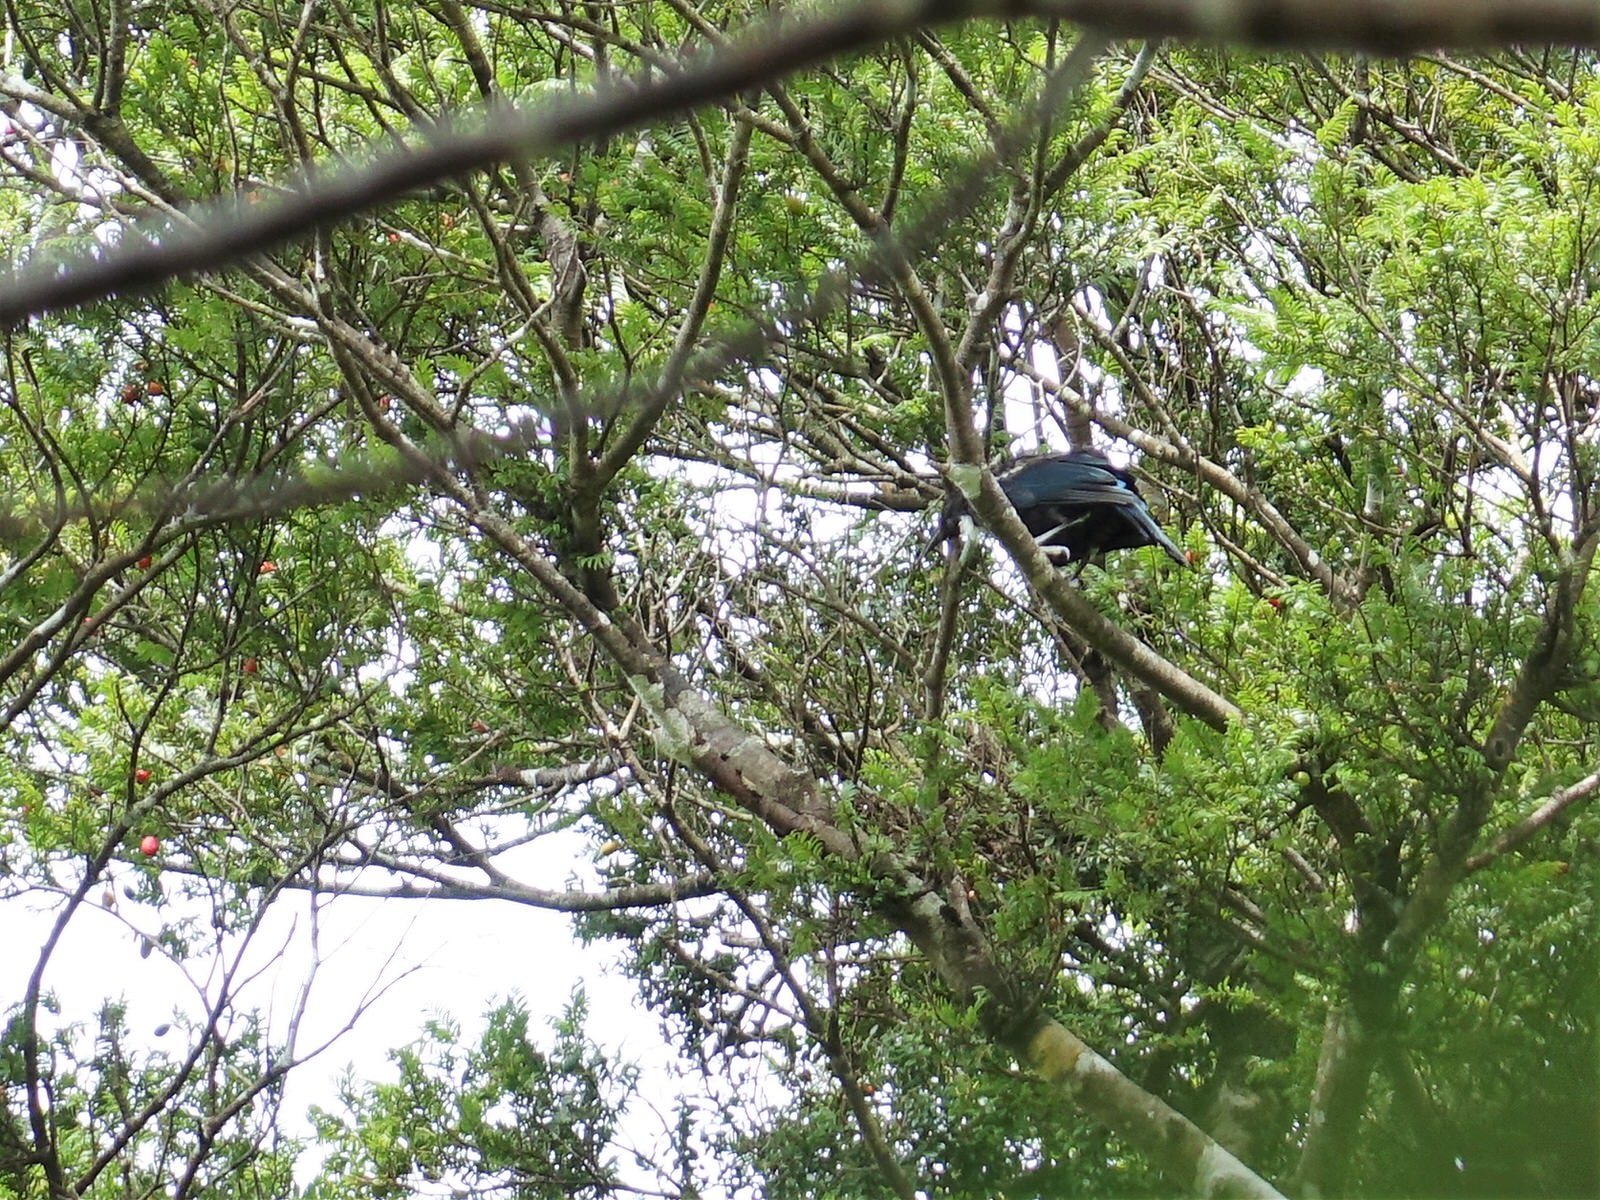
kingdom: Animalia
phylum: Chordata
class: Aves
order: Passeriformes
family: Meliphagidae
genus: Prosthemadera
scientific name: Prosthemadera novaeseelandiae
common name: Tui
